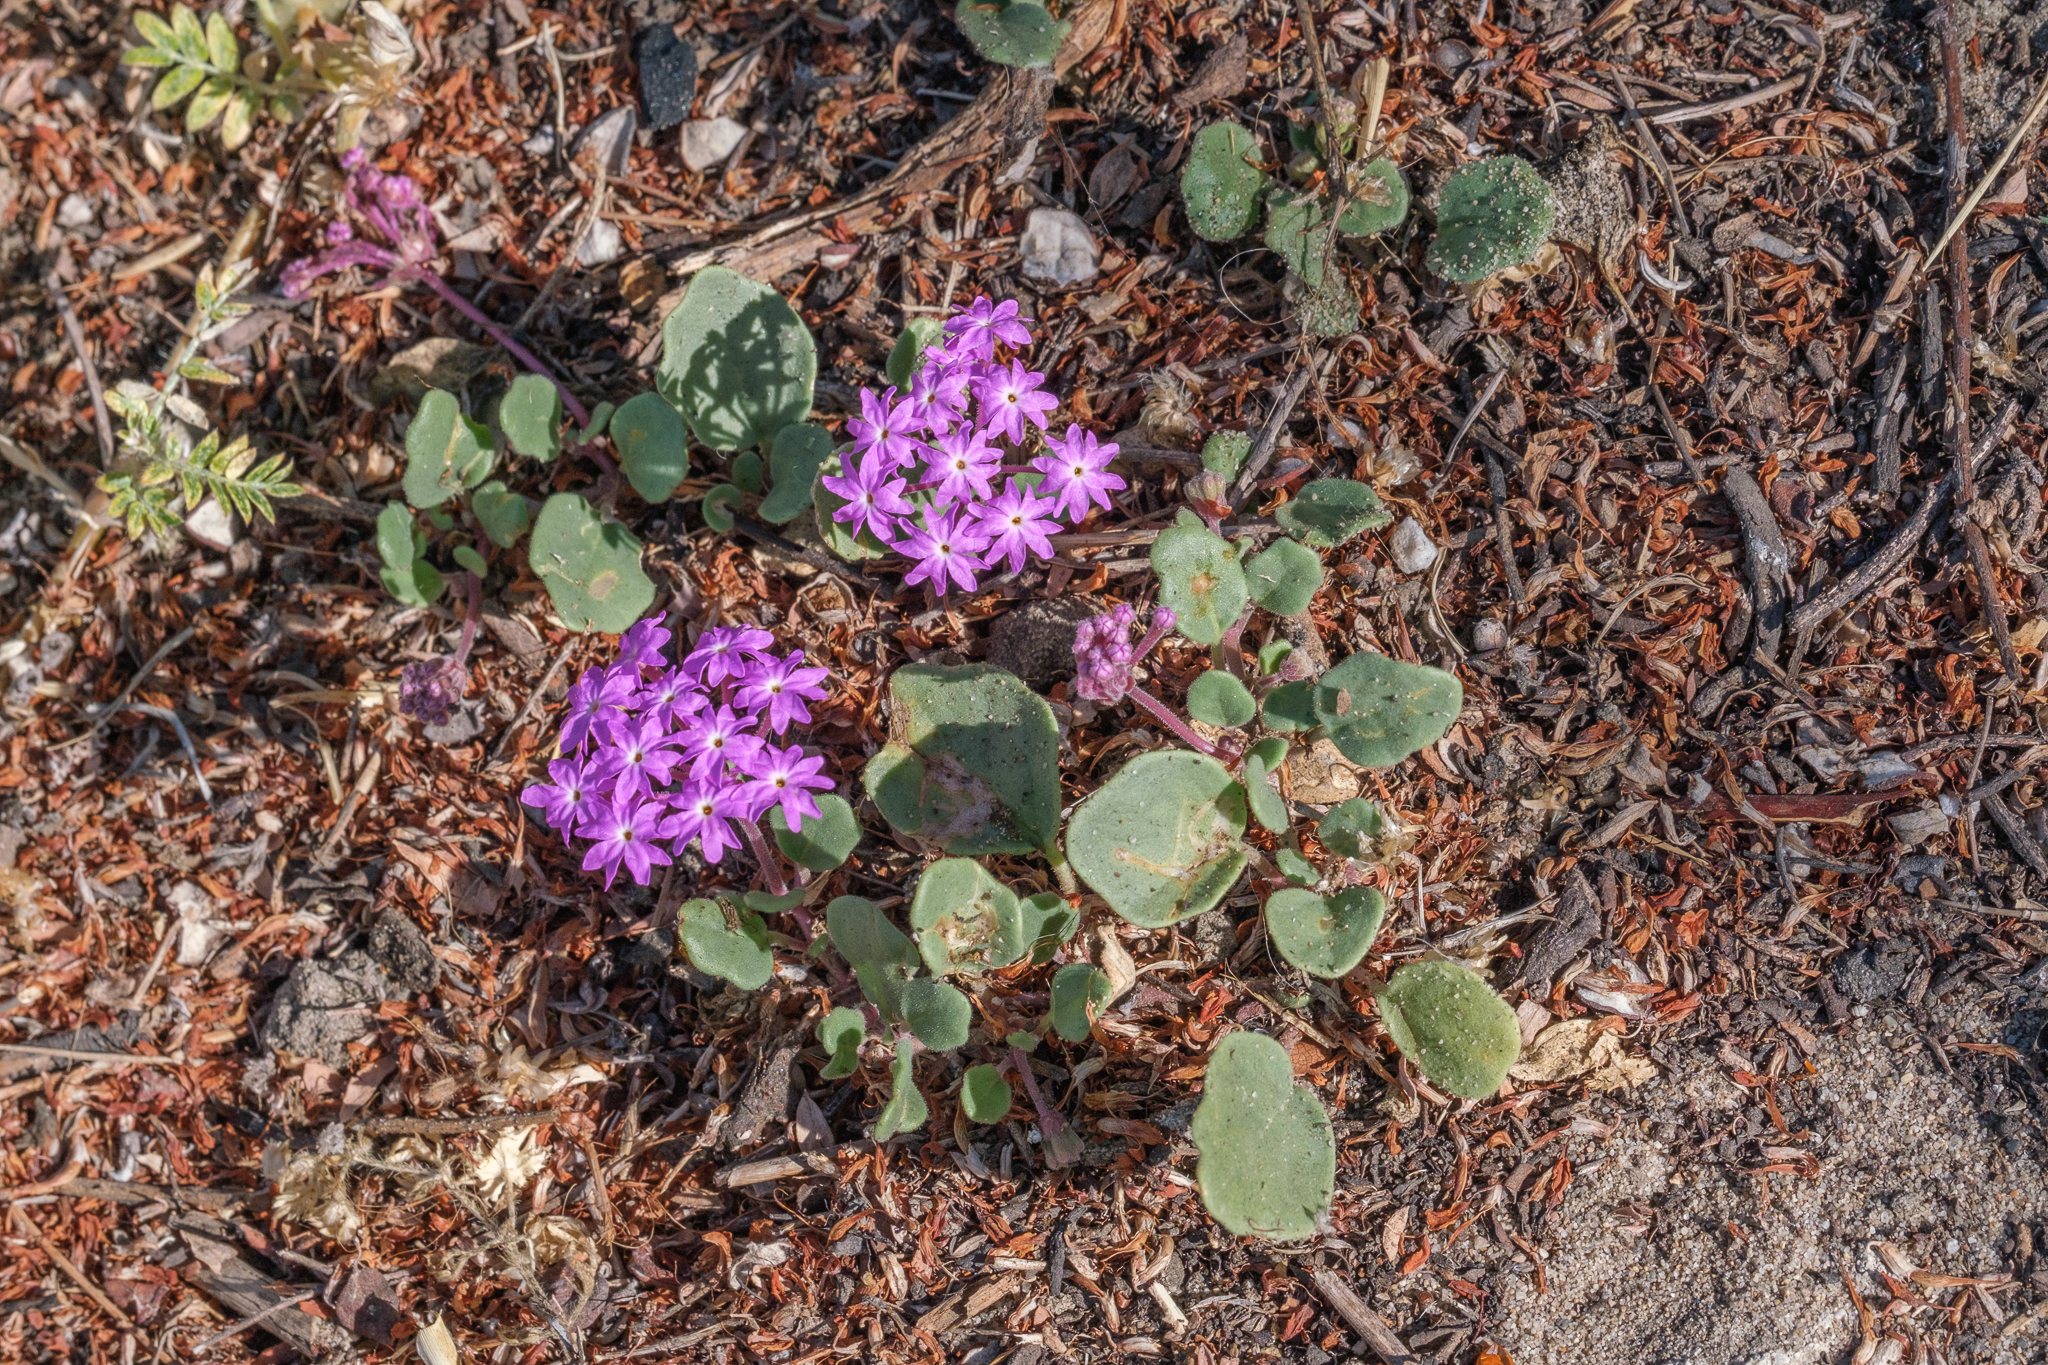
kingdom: Plantae
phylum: Tracheophyta
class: Magnoliopsida
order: Caryophyllales
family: Nyctaginaceae
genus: Abronia
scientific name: Abronia umbellata
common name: Sand-verbena
